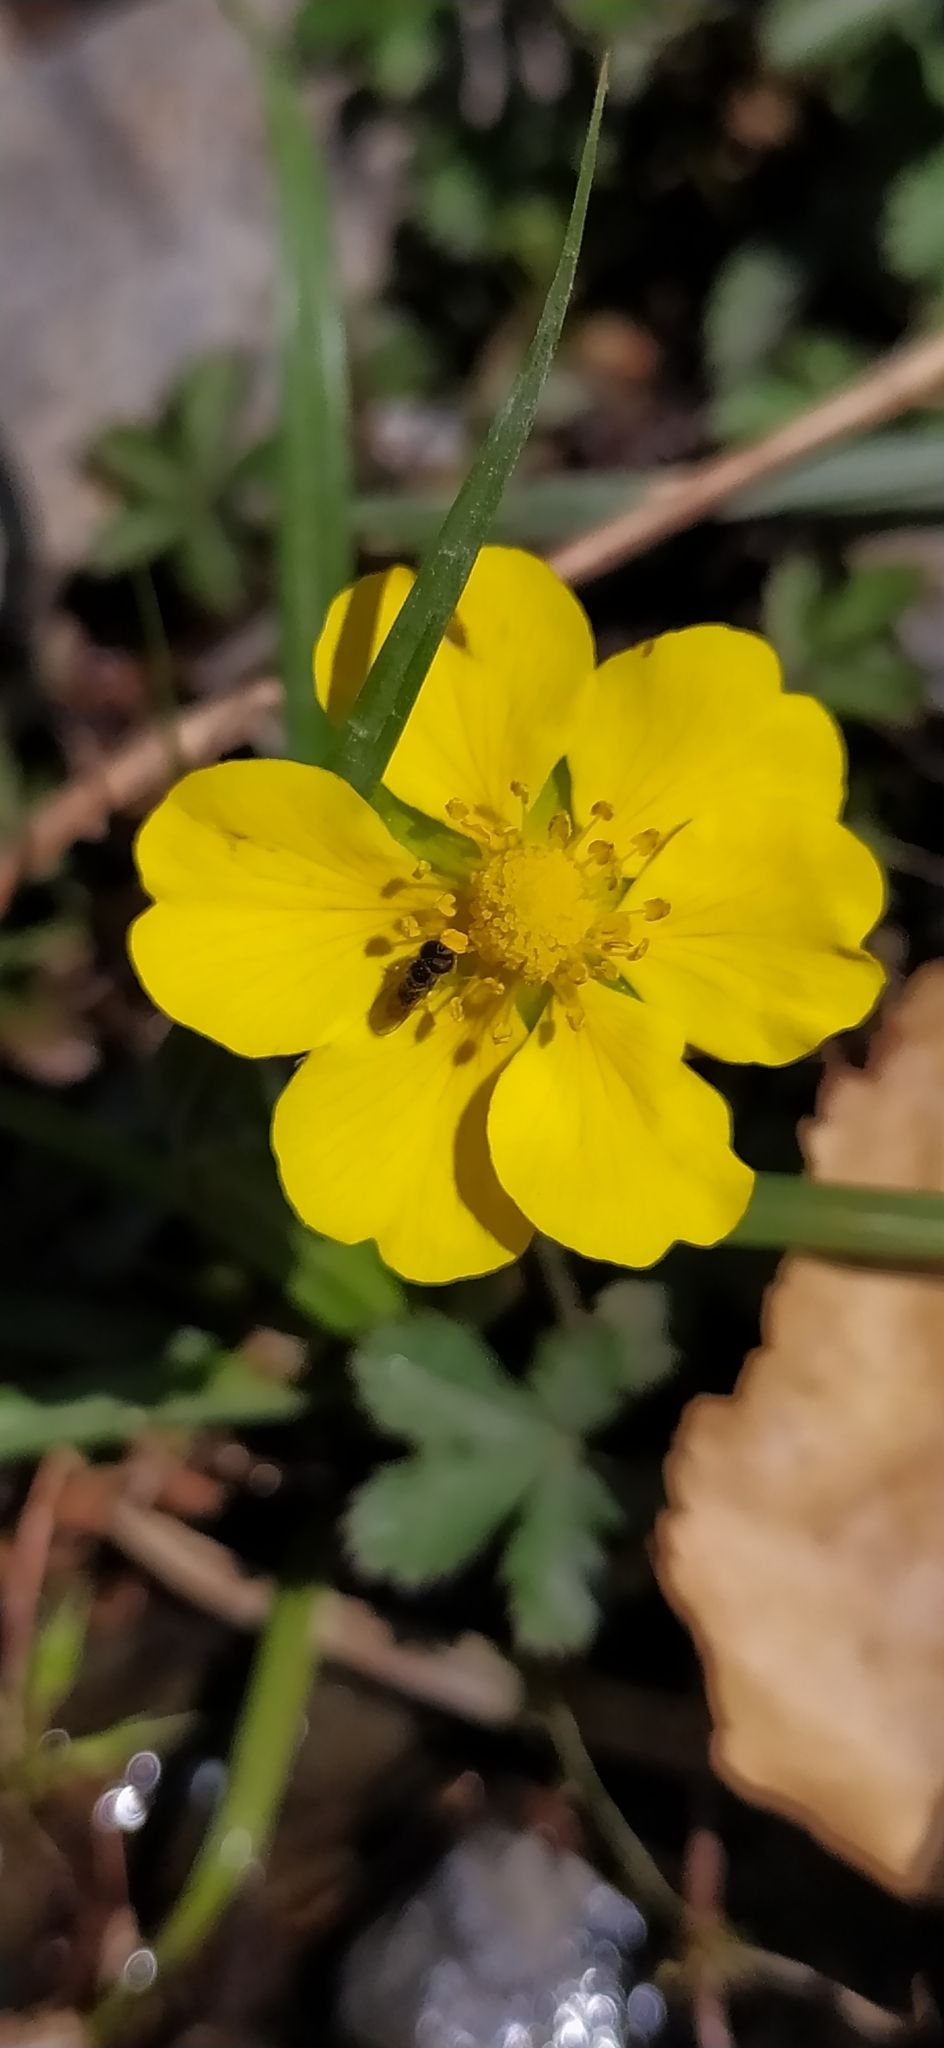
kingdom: Plantae
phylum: Tracheophyta
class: Magnoliopsida
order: Rosales
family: Rosaceae
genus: Potentilla
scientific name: Potentilla reptans
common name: Creeping cinquefoil
